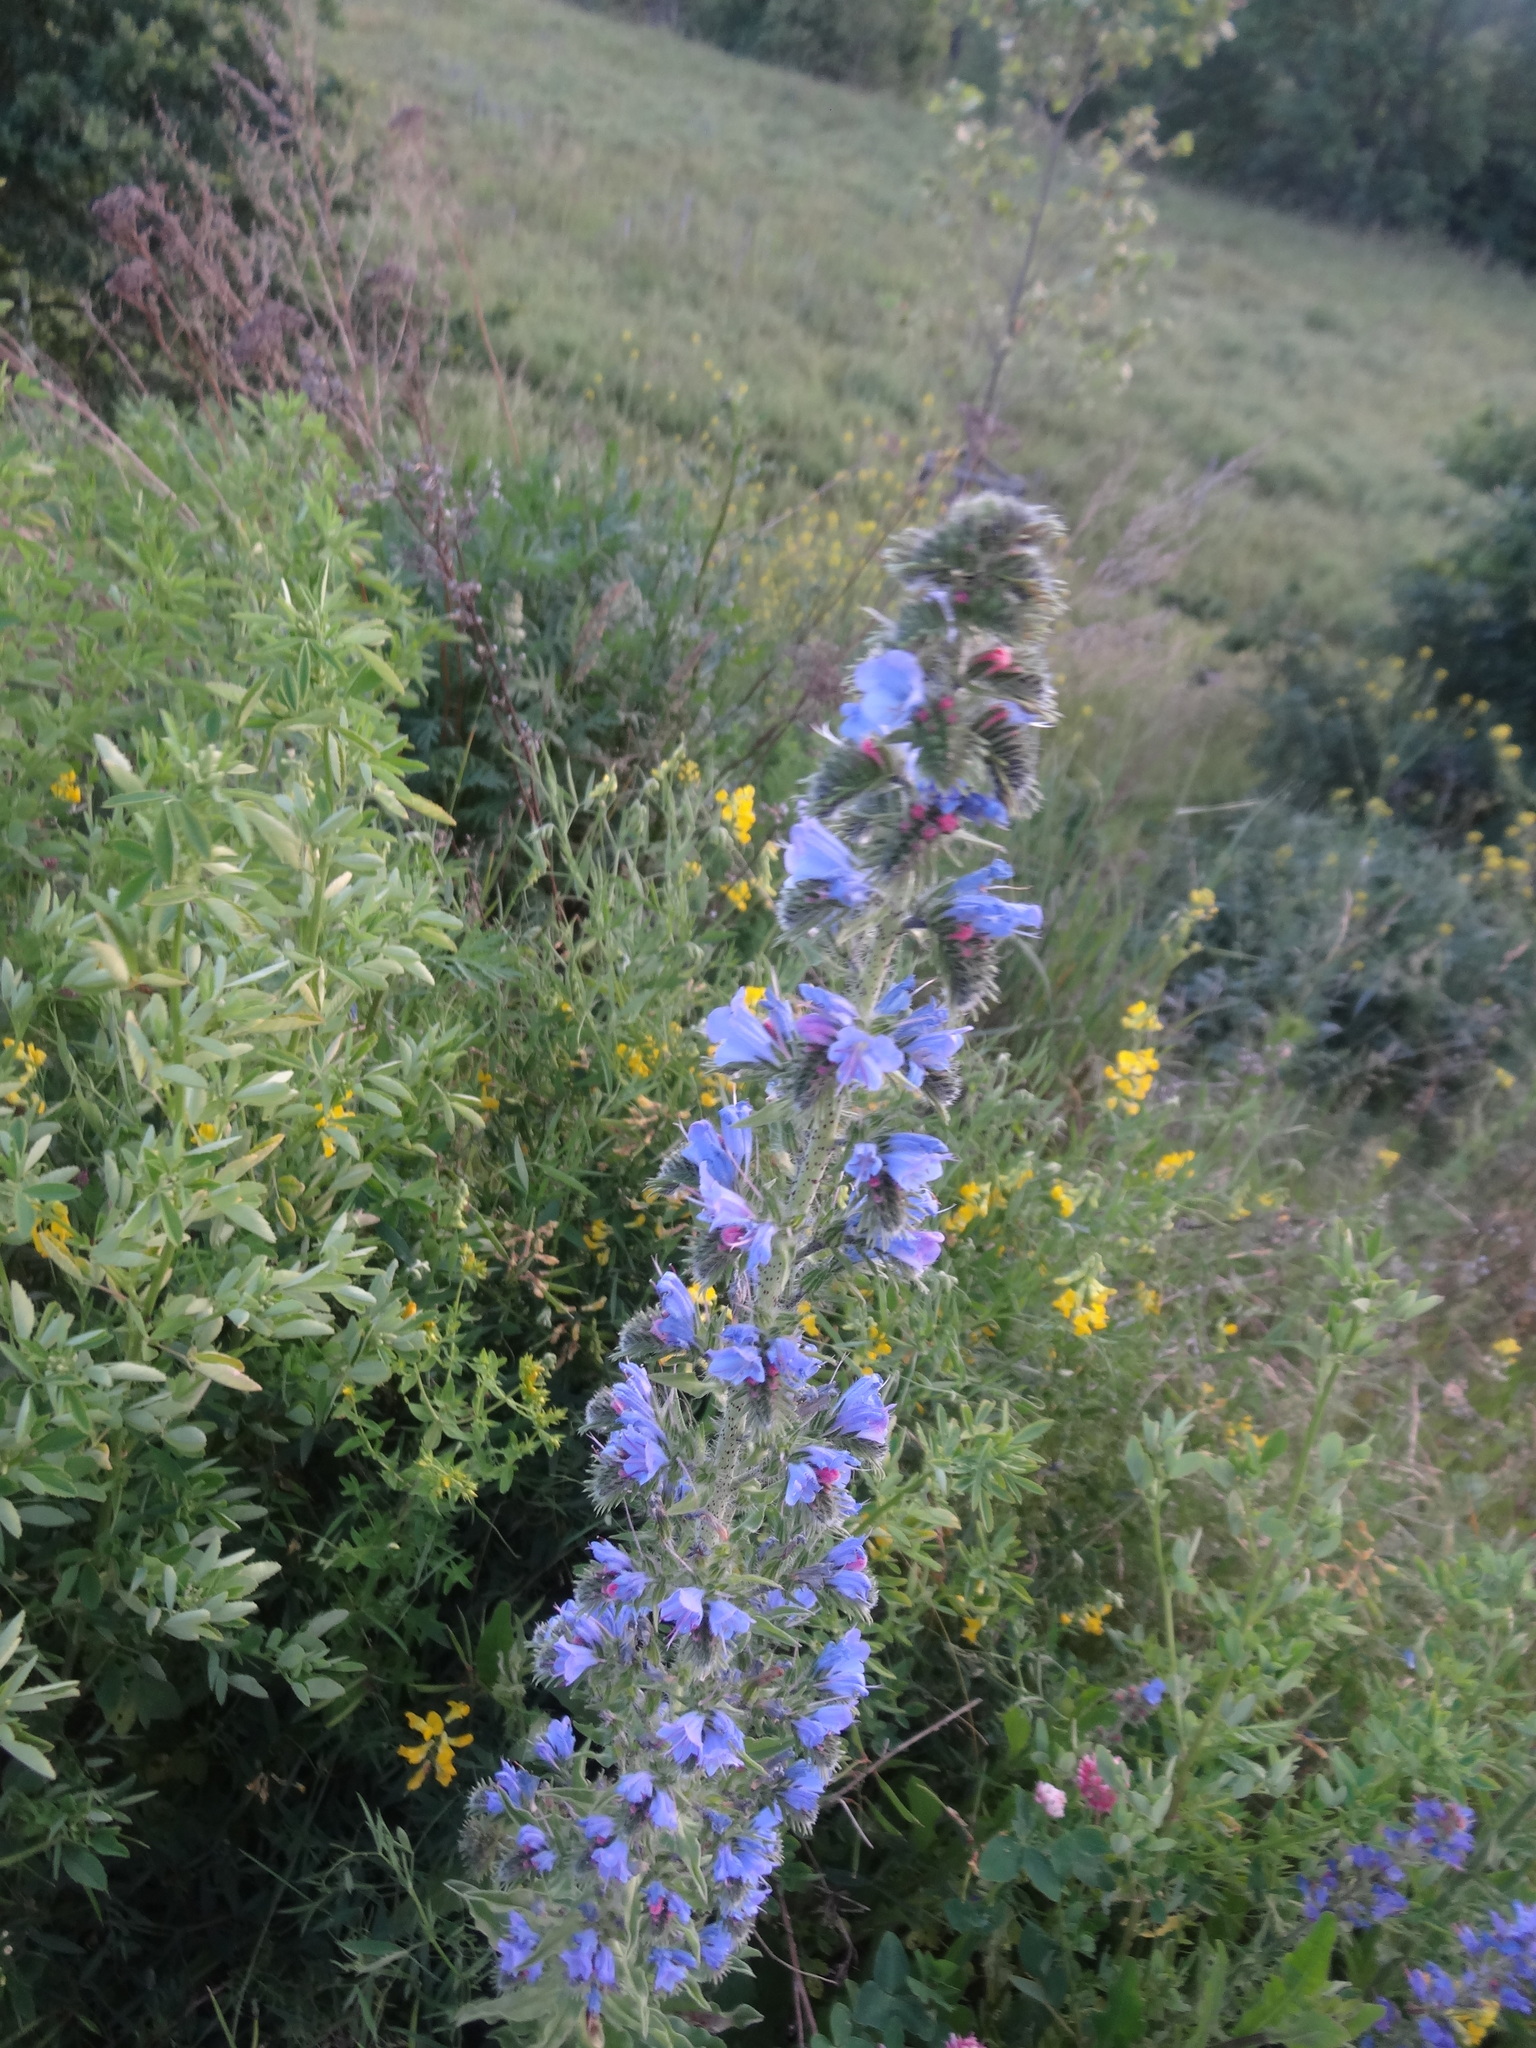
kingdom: Plantae
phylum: Tracheophyta
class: Magnoliopsida
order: Boraginales
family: Boraginaceae
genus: Echium
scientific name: Echium vulgare
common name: Common viper's bugloss
